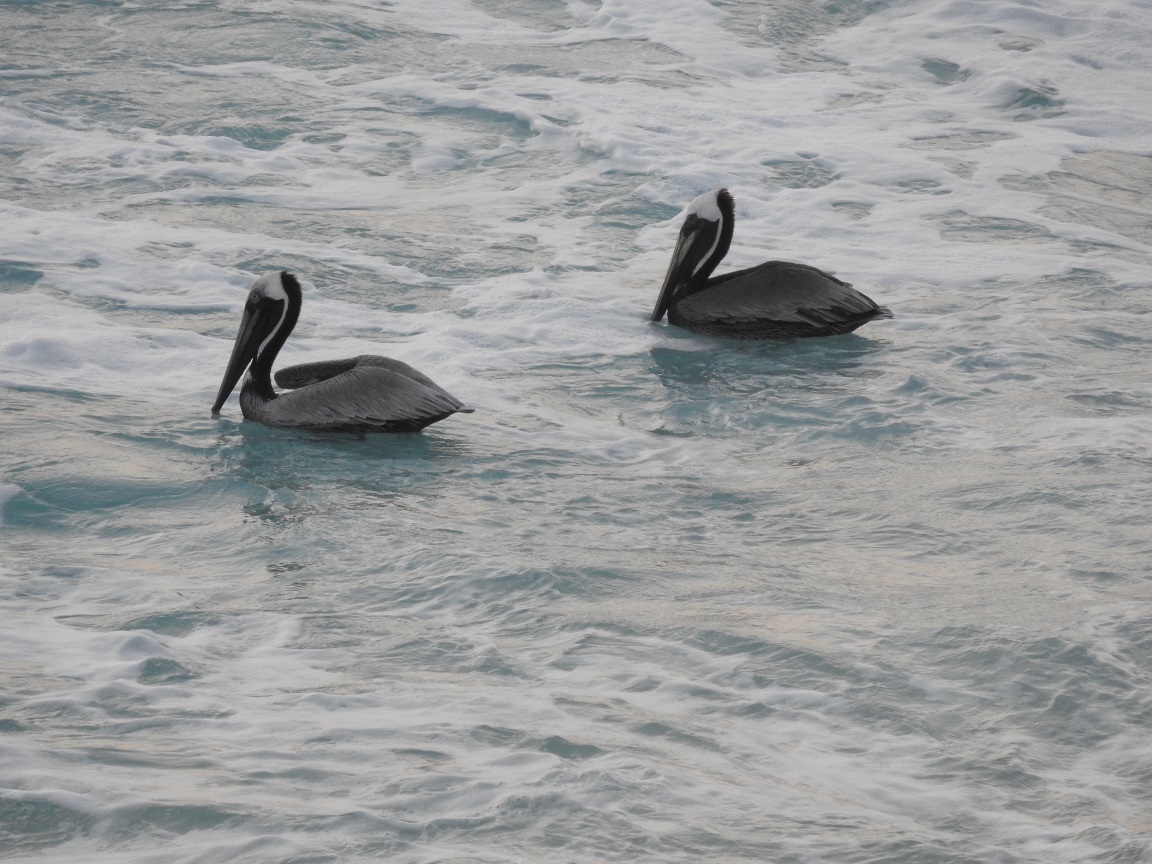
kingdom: Animalia
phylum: Chordata
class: Aves
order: Pelecaniformes
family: Pelecanidae
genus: Pelecanus
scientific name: Pelecanus occidentalis
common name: Brown pelican
